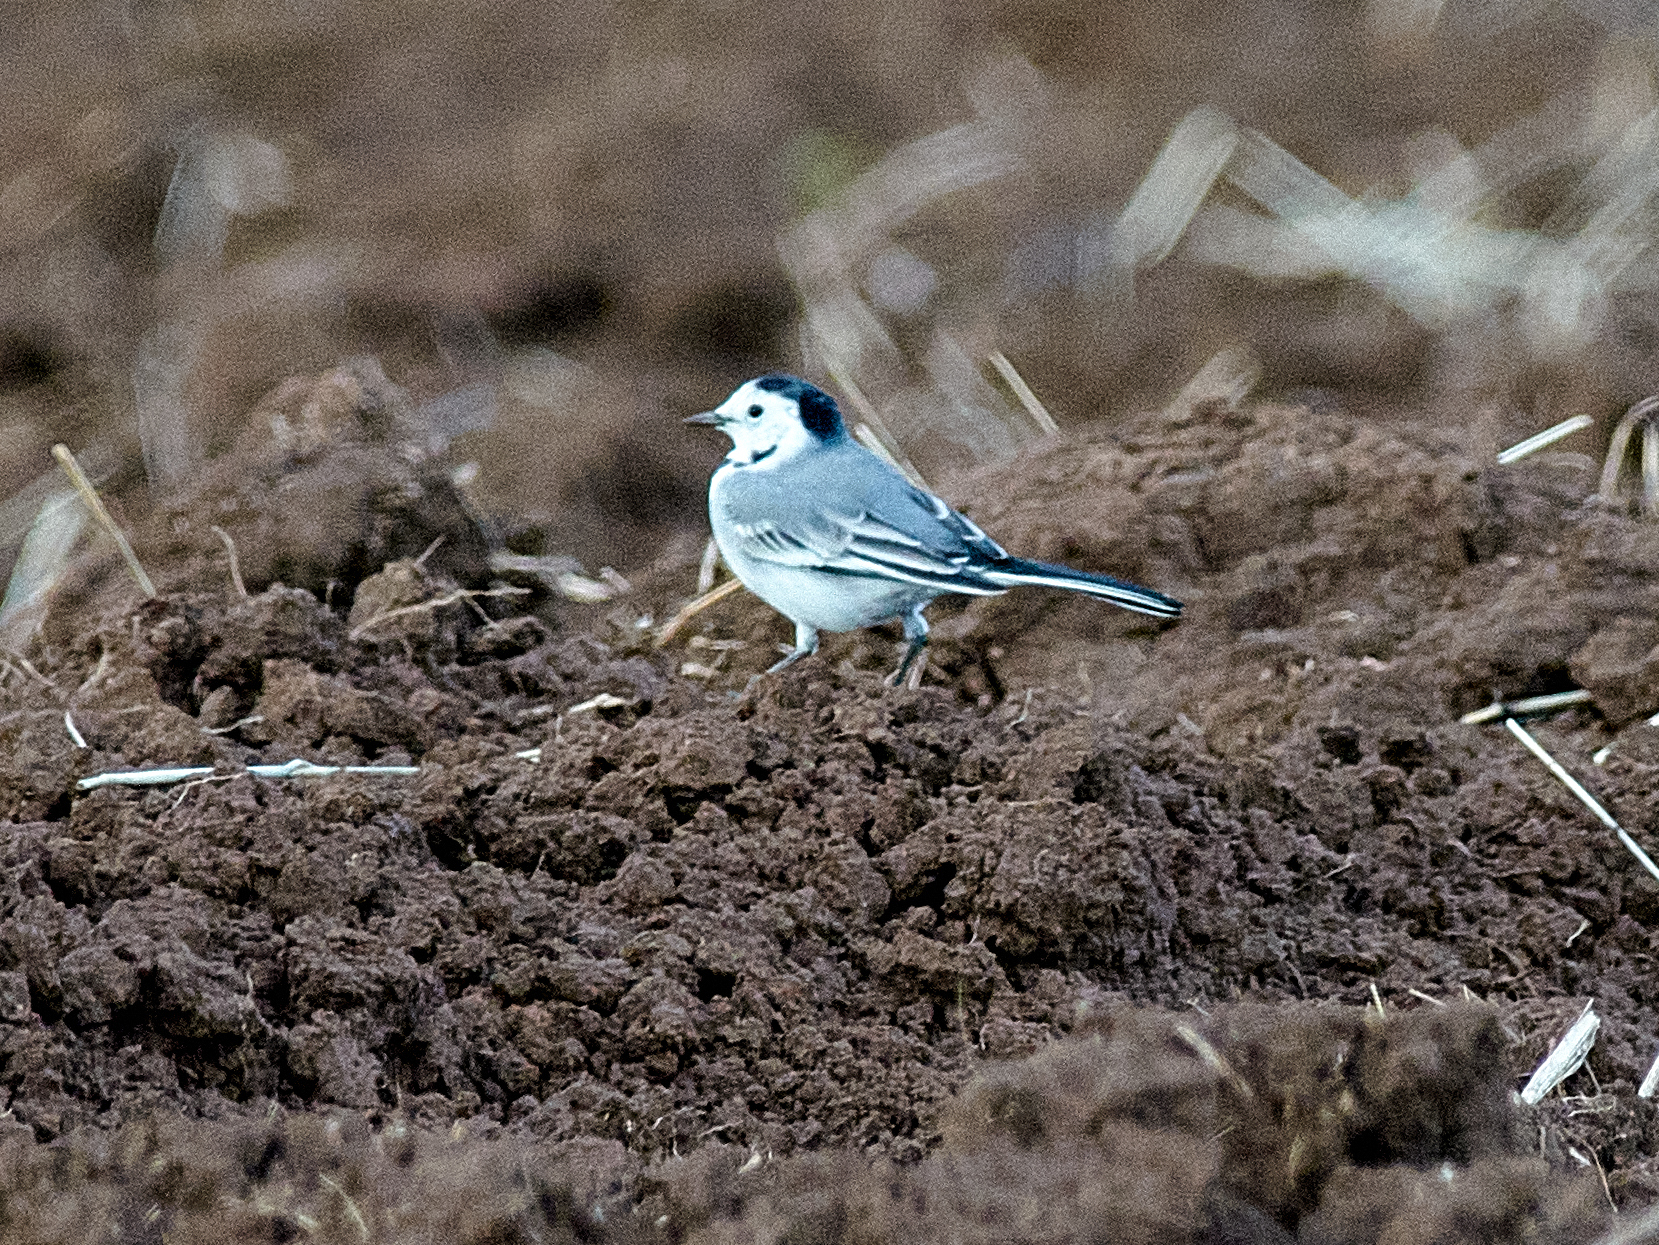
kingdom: Animalia
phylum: Chordata
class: Aves
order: Passeriformes
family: Motacillidae
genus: Motacilla
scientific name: Motacilla alba
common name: White wagtail
